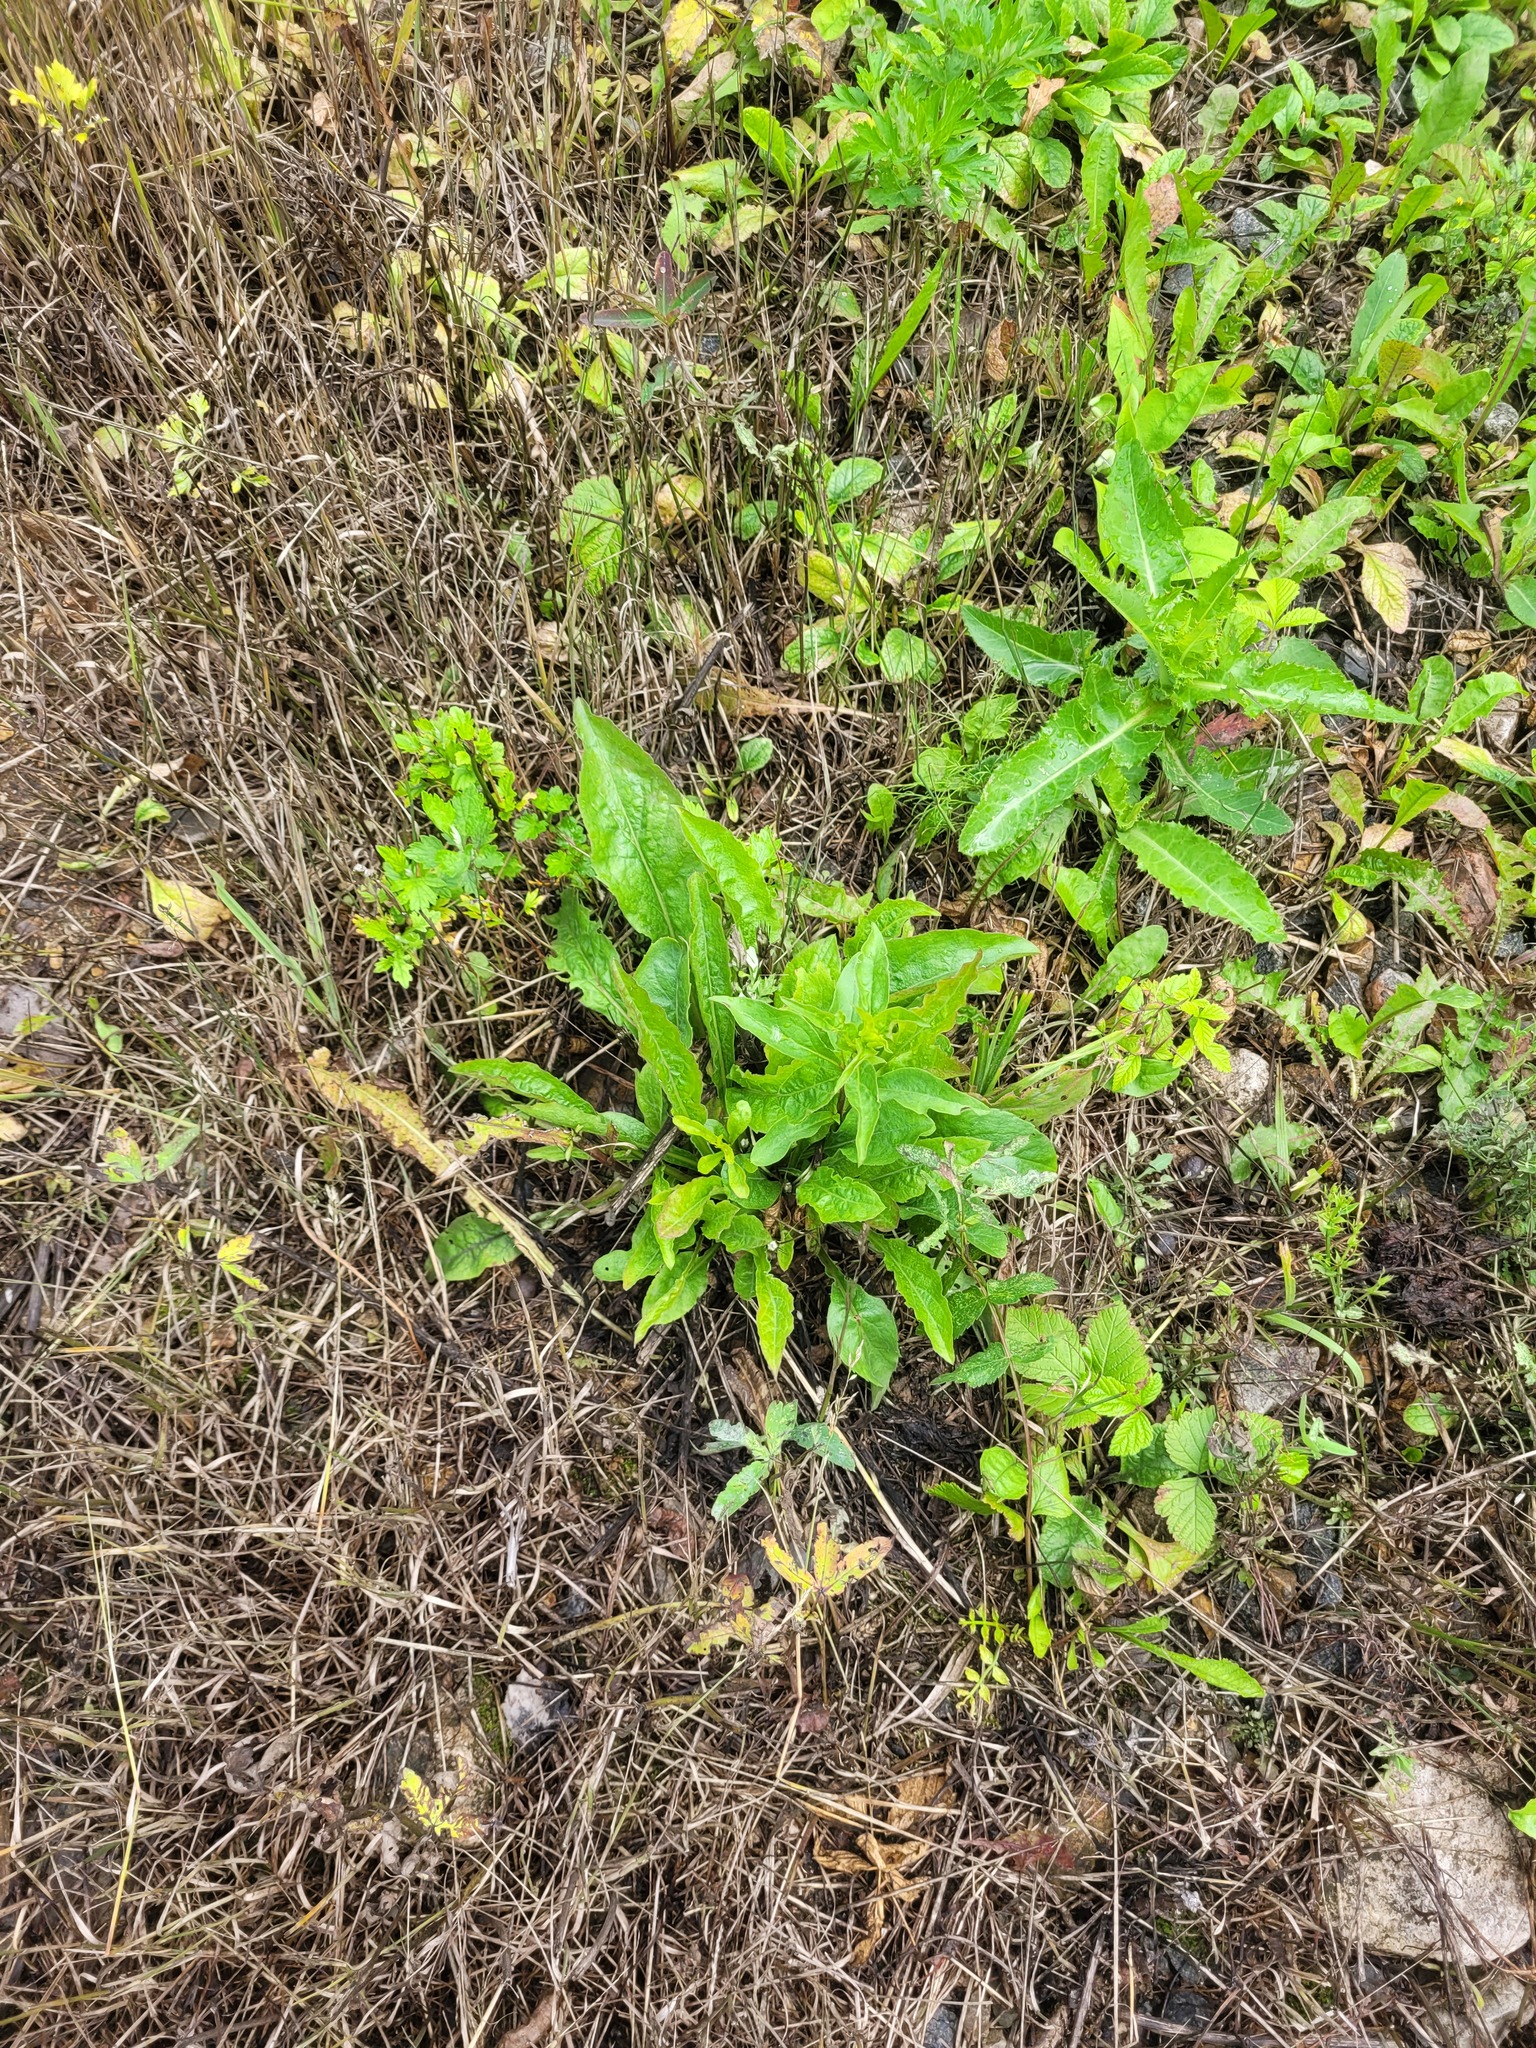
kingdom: Plantae
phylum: Tracheophyta
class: Magnoliopsida
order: Asterales
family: Asteraceae
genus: Solidago
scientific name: Solidago virgaurea
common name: Goldenrod
